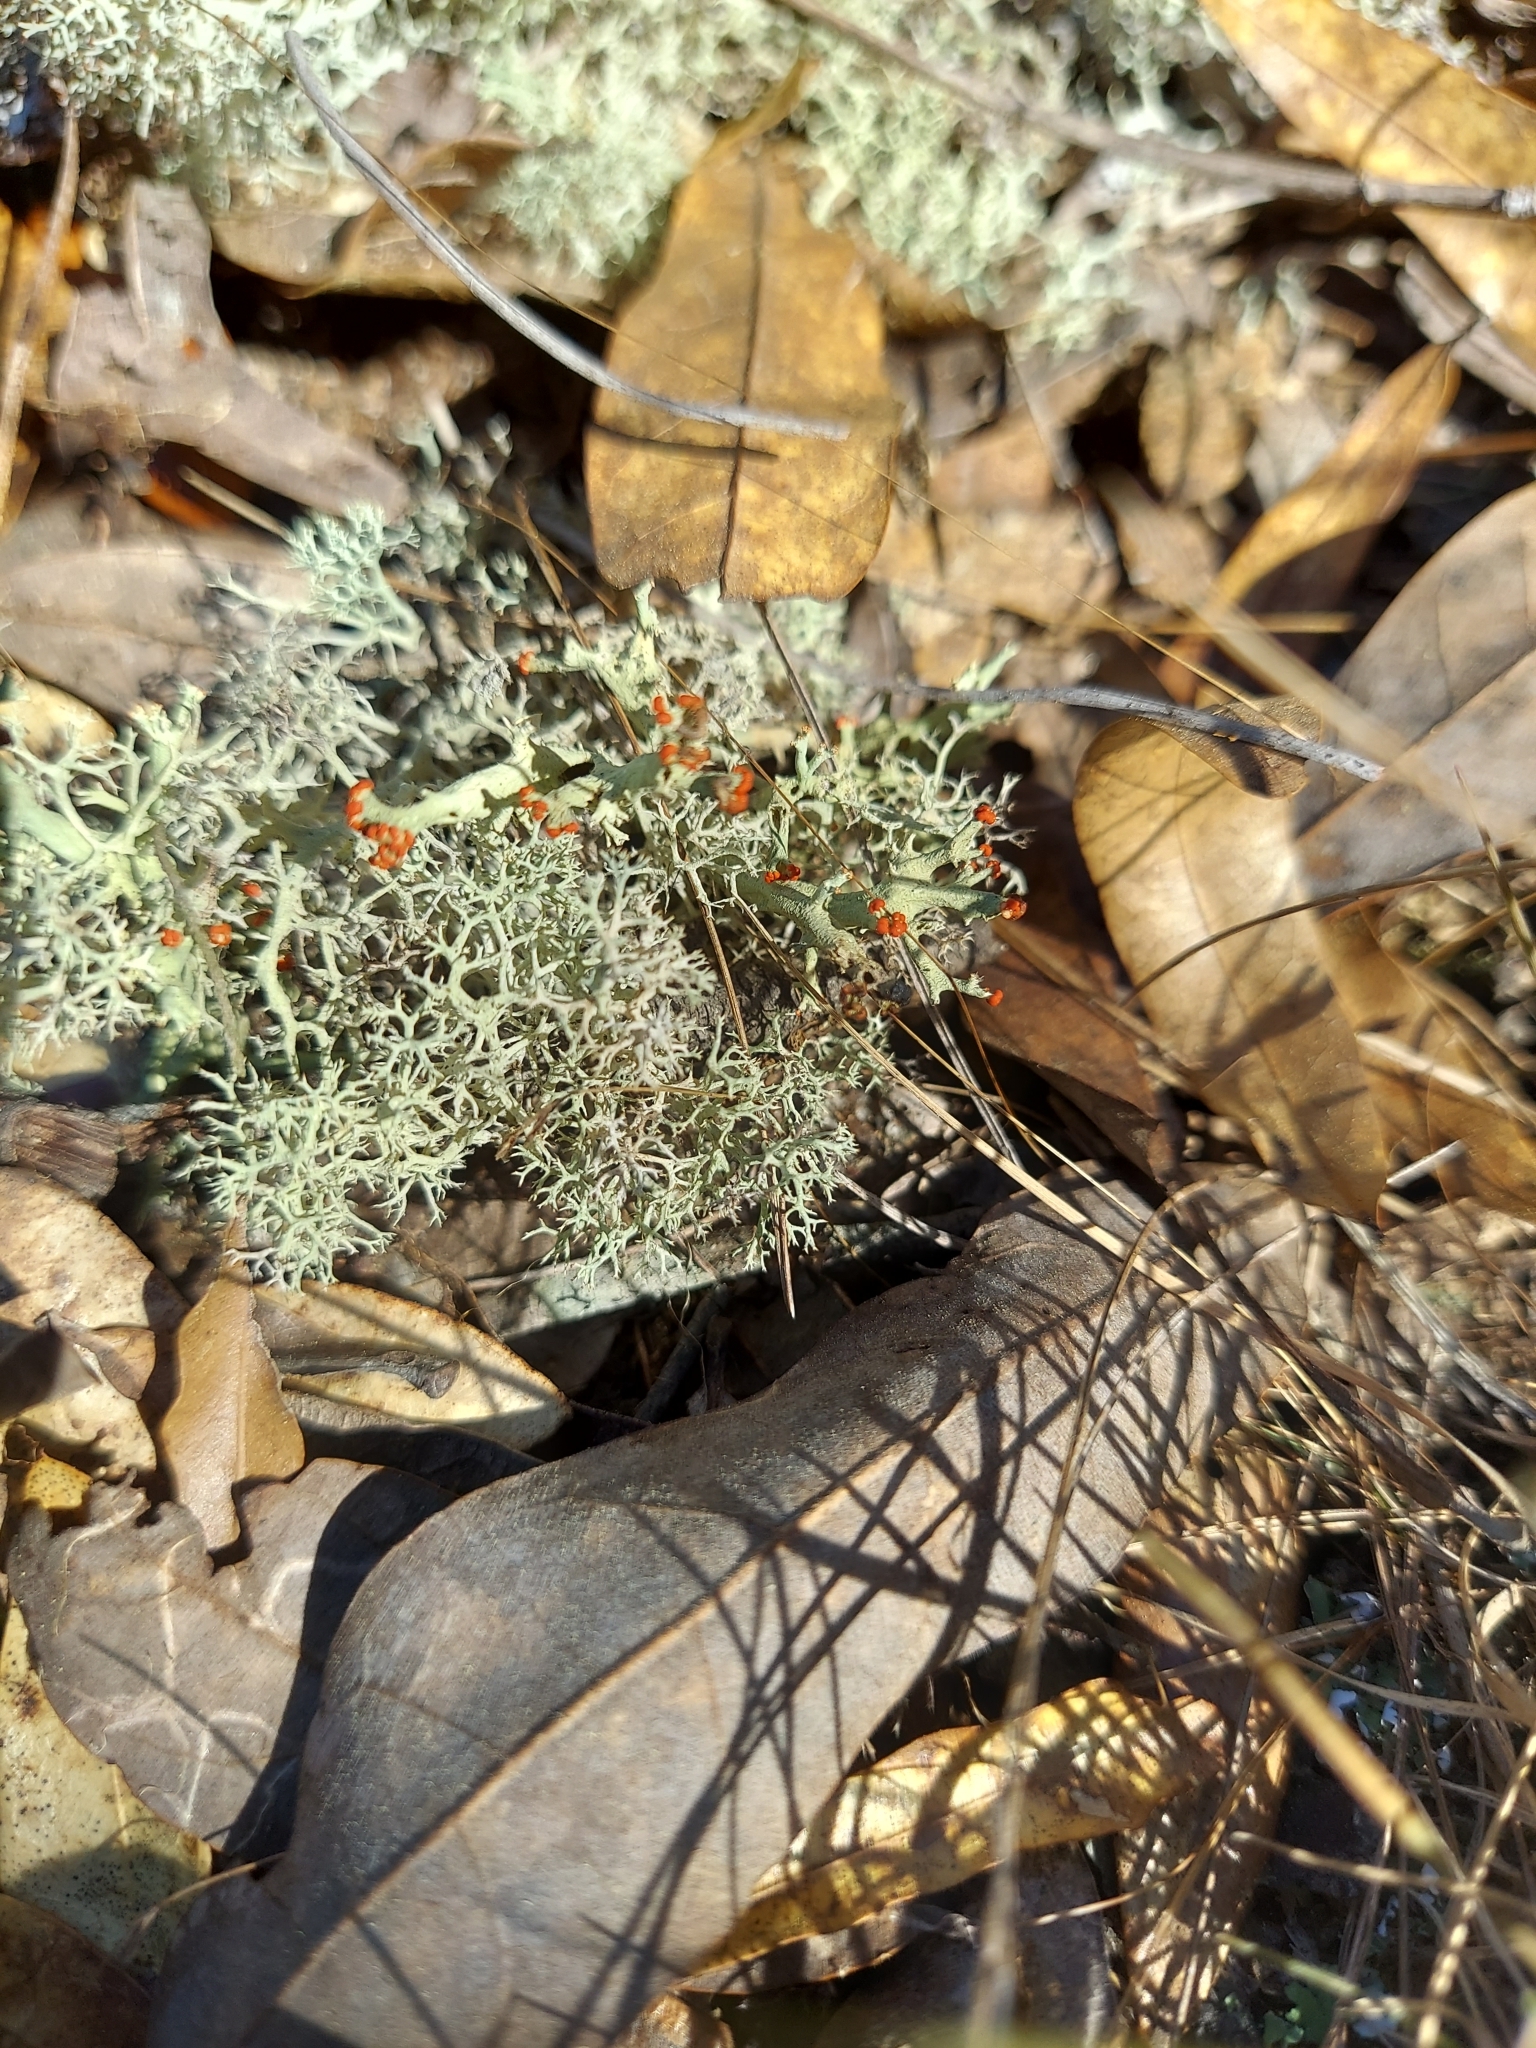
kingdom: Fungi
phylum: Ascomycota
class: Lecanoromycetes
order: Lecanorales
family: Cladoniaceae
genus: Cladonia
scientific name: Cladonia leporina
